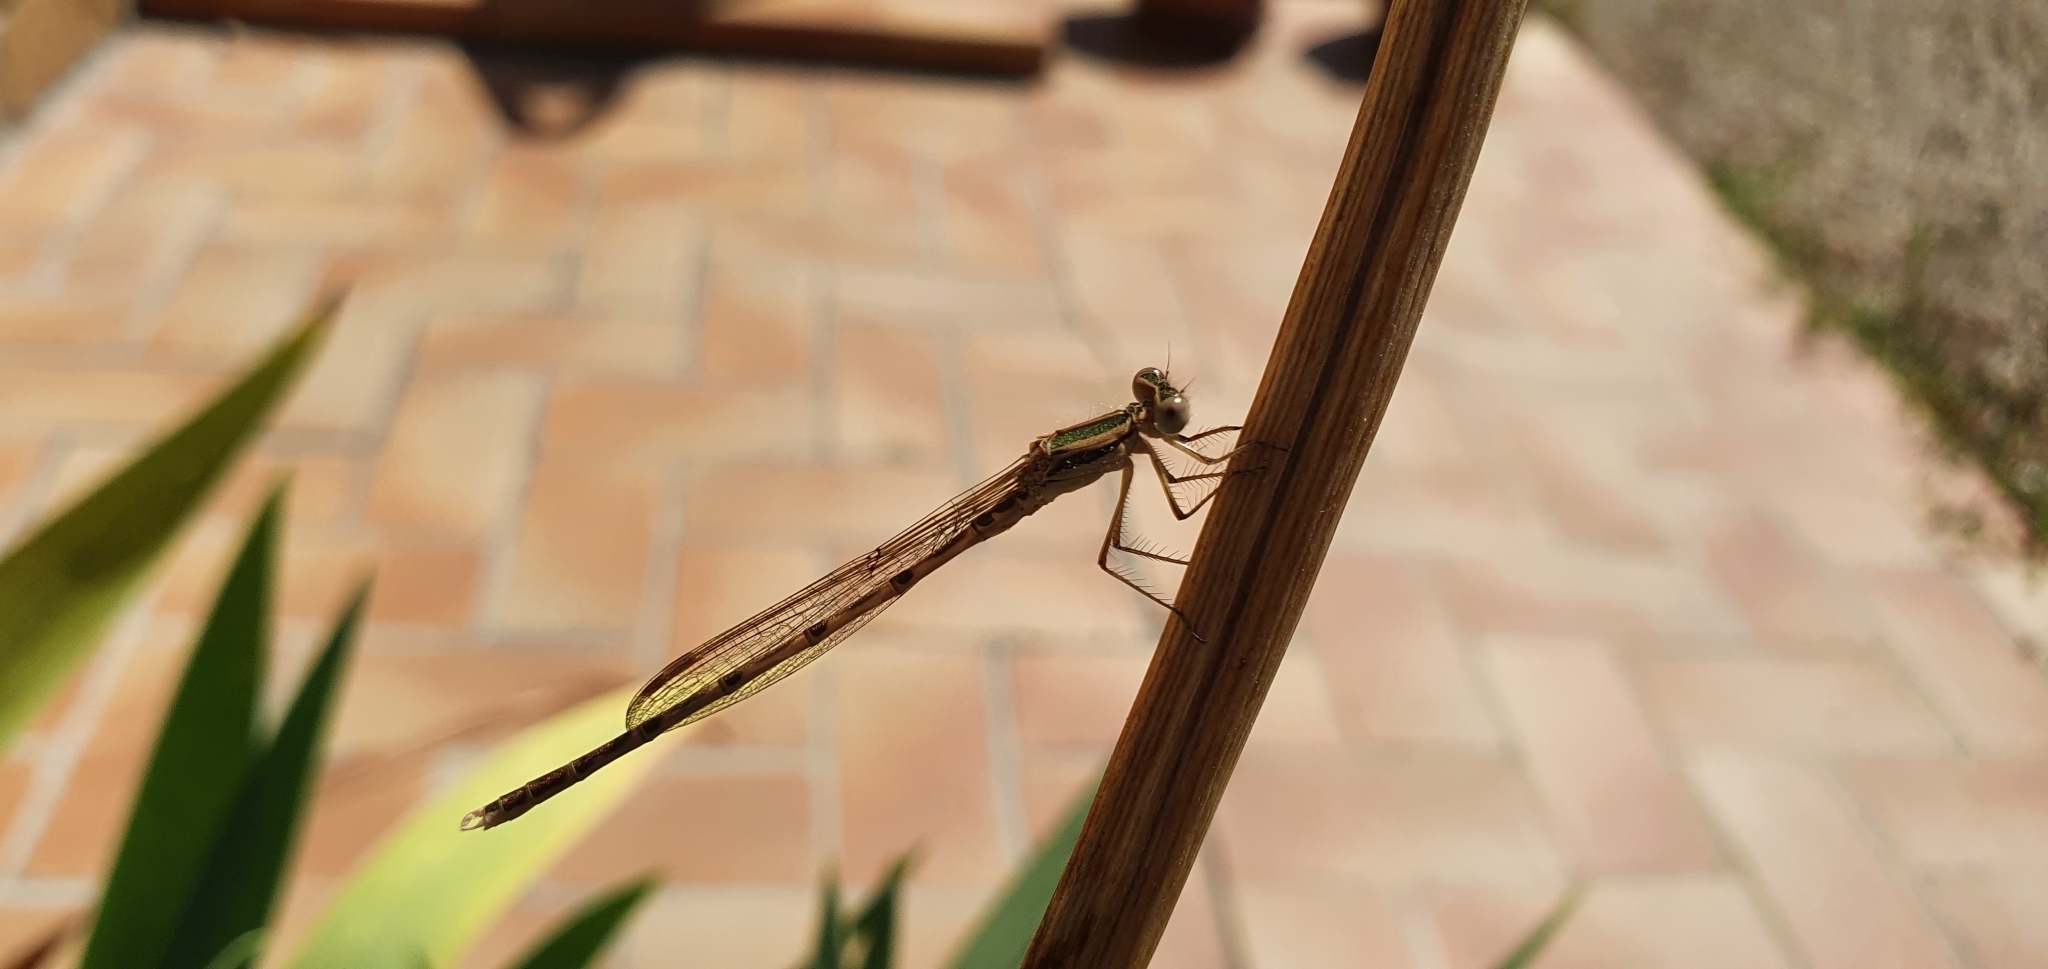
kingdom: Animalia
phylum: Arthropoda
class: Insecta
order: Odonata
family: Lestidae
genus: Sympecma
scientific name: Sympecma fusca
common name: Common winter damsel
